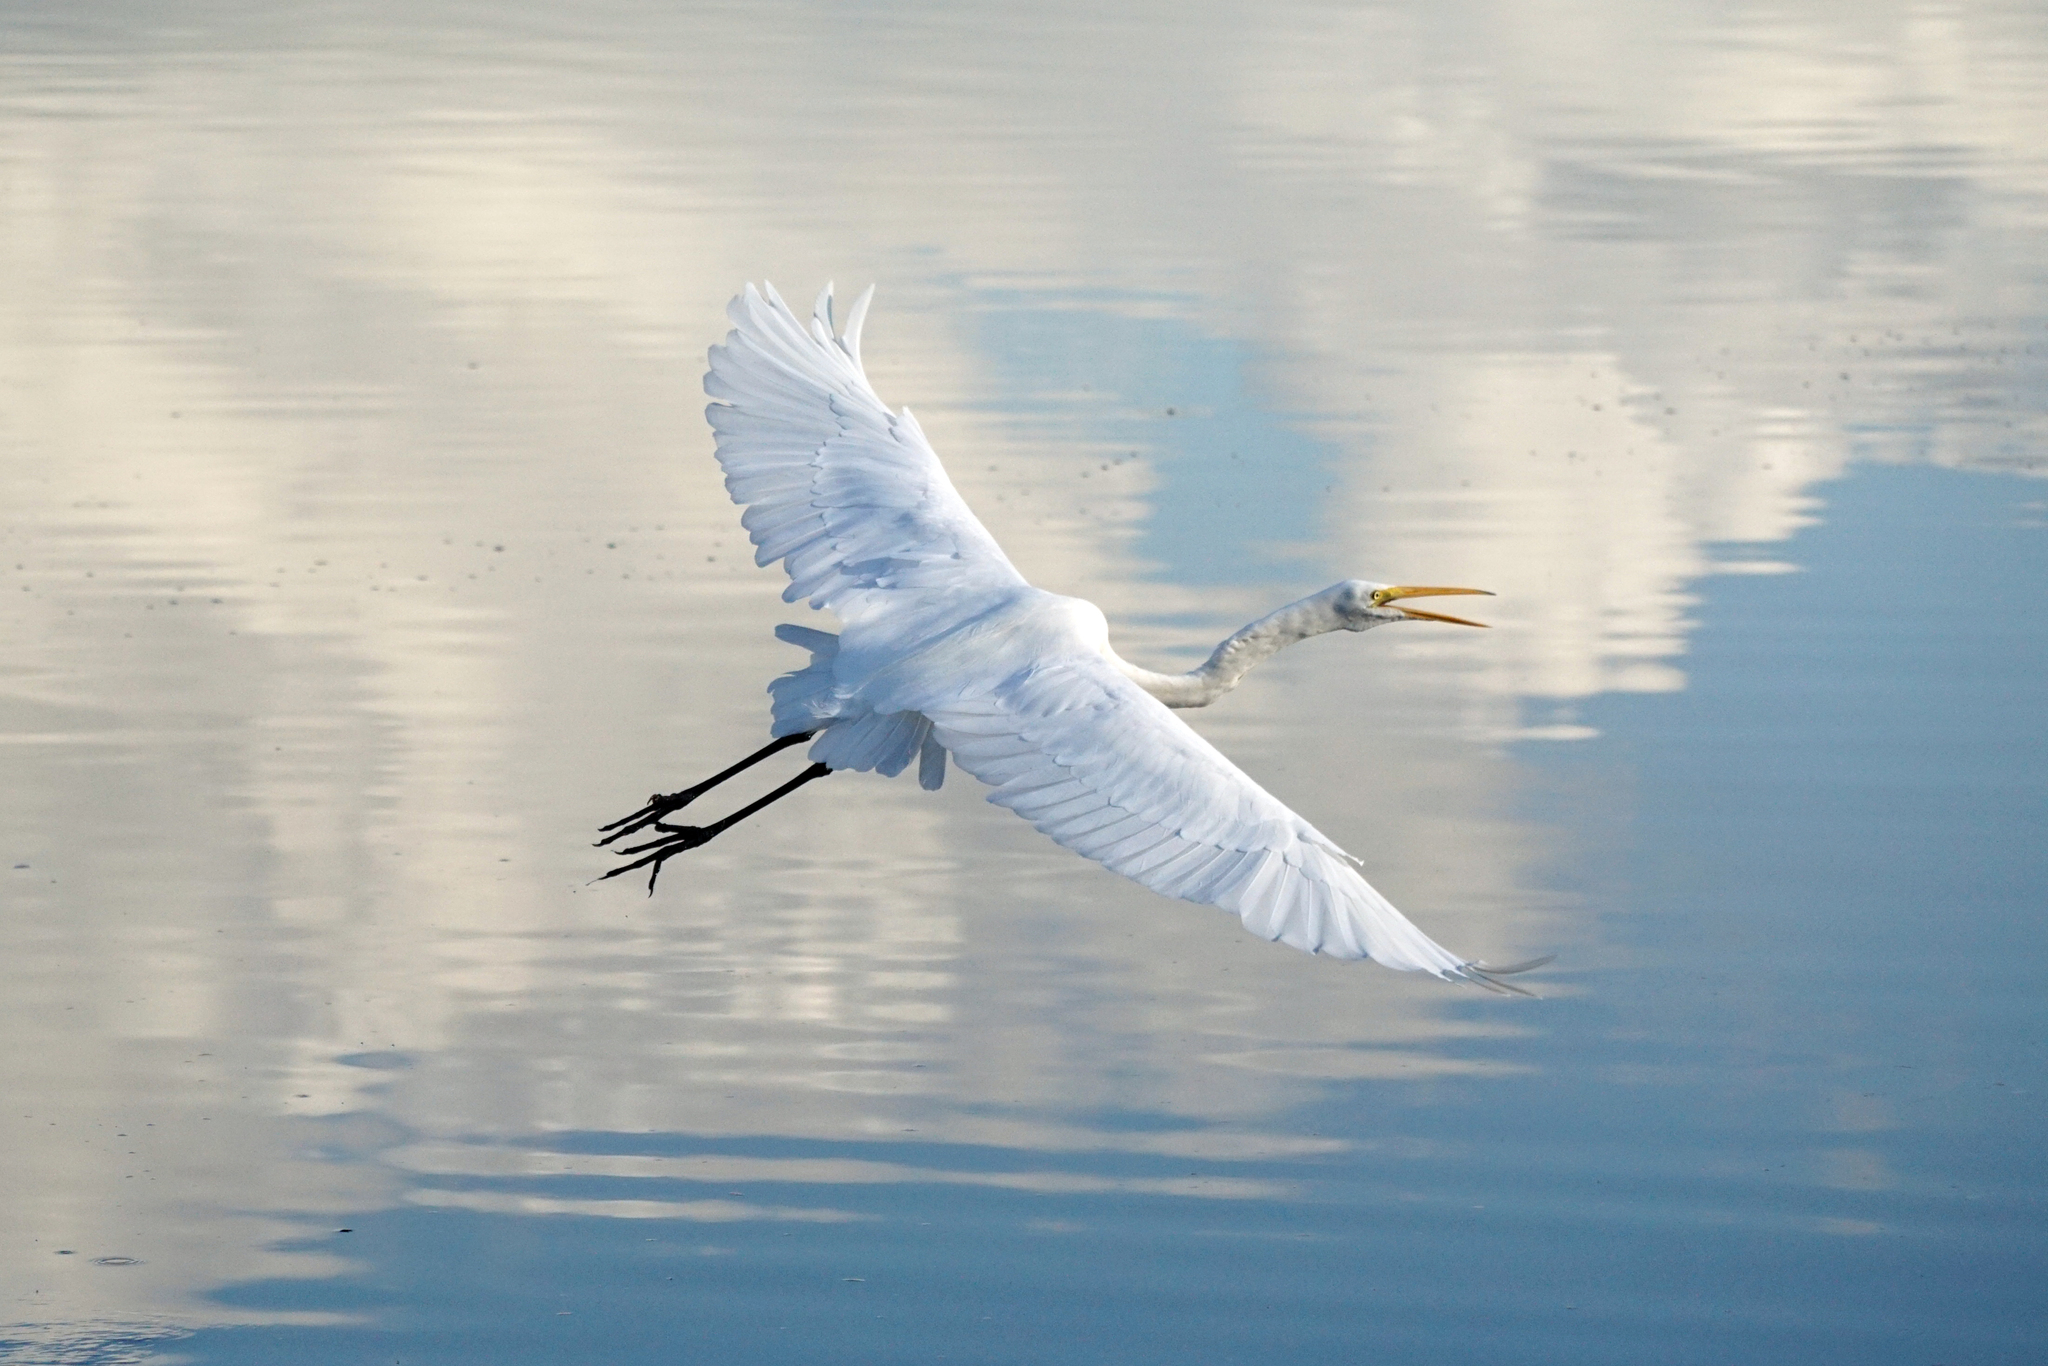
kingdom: Animalia
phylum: Chordata
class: Aves
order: Pelecaniformes
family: Ardeidae
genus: Ardea
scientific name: Ardea alba
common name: Great egret
